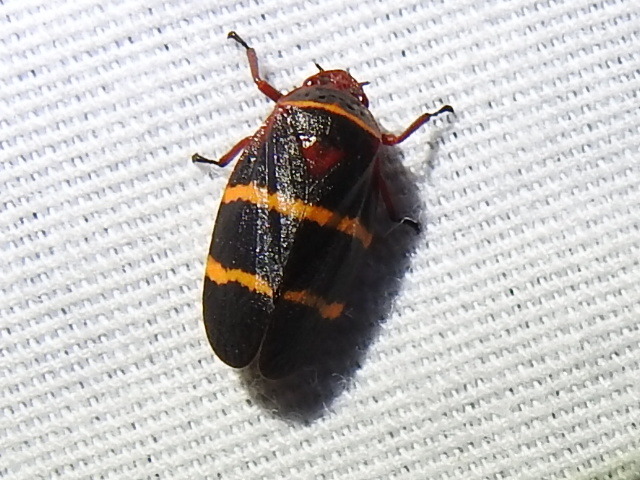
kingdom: Animalia
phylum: Arthropoda
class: Insecta
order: Hemiptera
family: Cercopidae
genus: Prosapia
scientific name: Prosapia bicincta
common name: Twolined spittlebug
